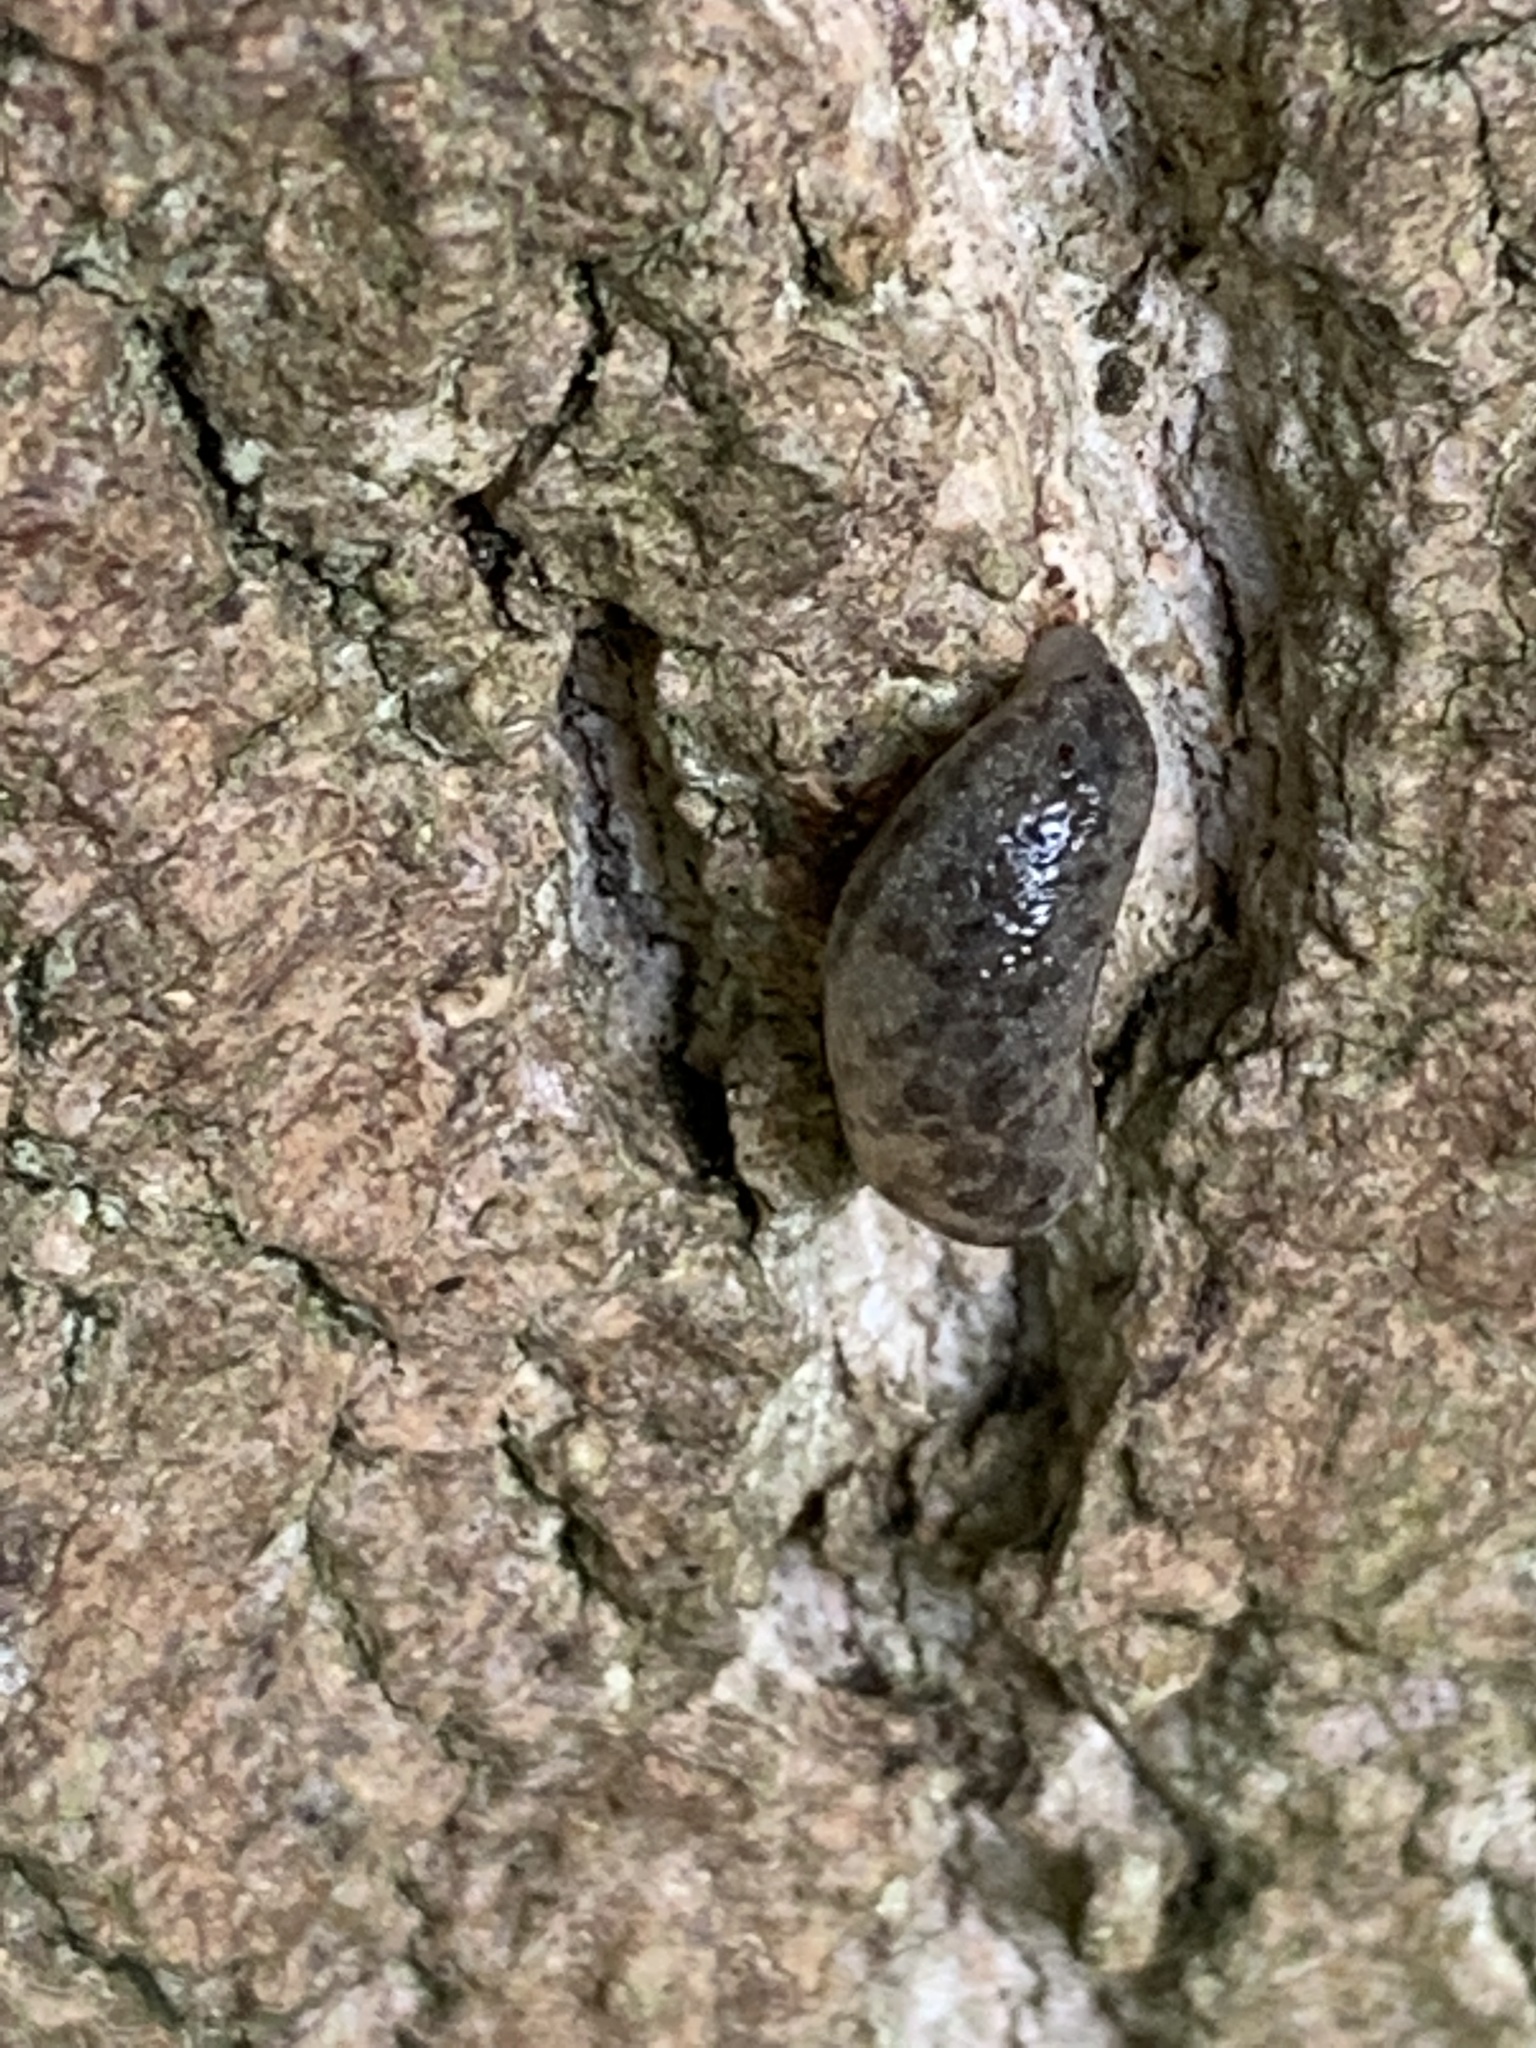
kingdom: Animalia
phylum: Mollusca
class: Gastropoda
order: Stylommatophora
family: Philomycidae
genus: Megapallifera
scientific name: Megapallifera mutabilis
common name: Changeable mantleslug
